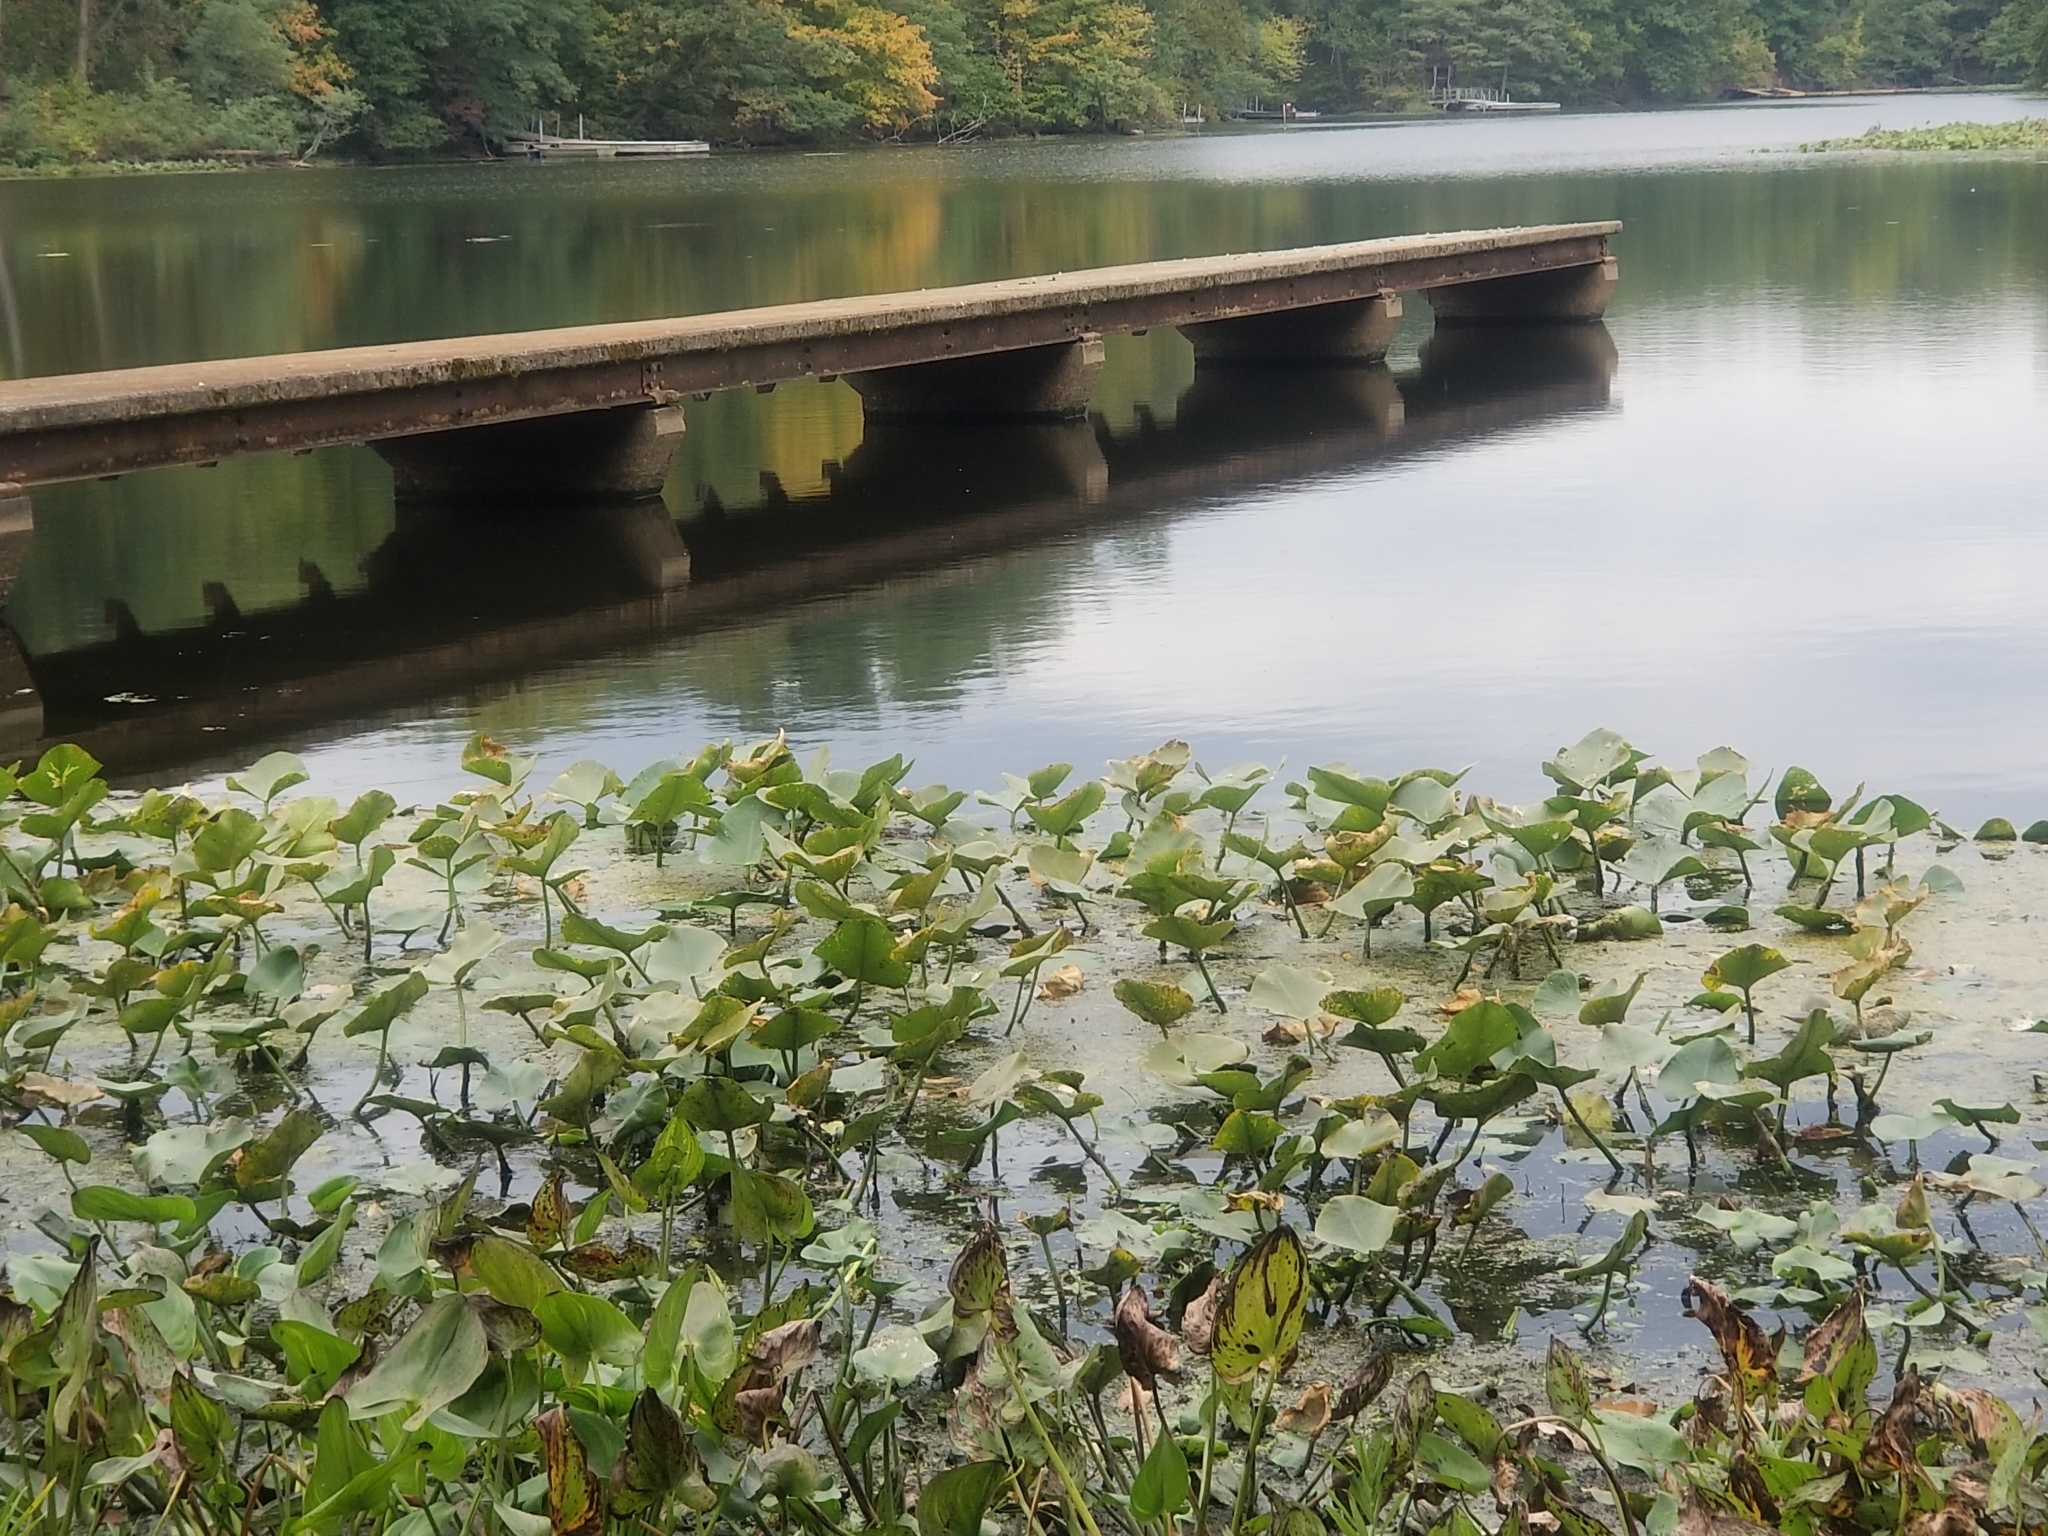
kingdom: Plantae
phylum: Tracheophyta
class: Magnoliopsida
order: Proteales
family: Nelumbonaceae
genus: Nelumbo
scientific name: Nelumbo lutea
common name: American lotus
